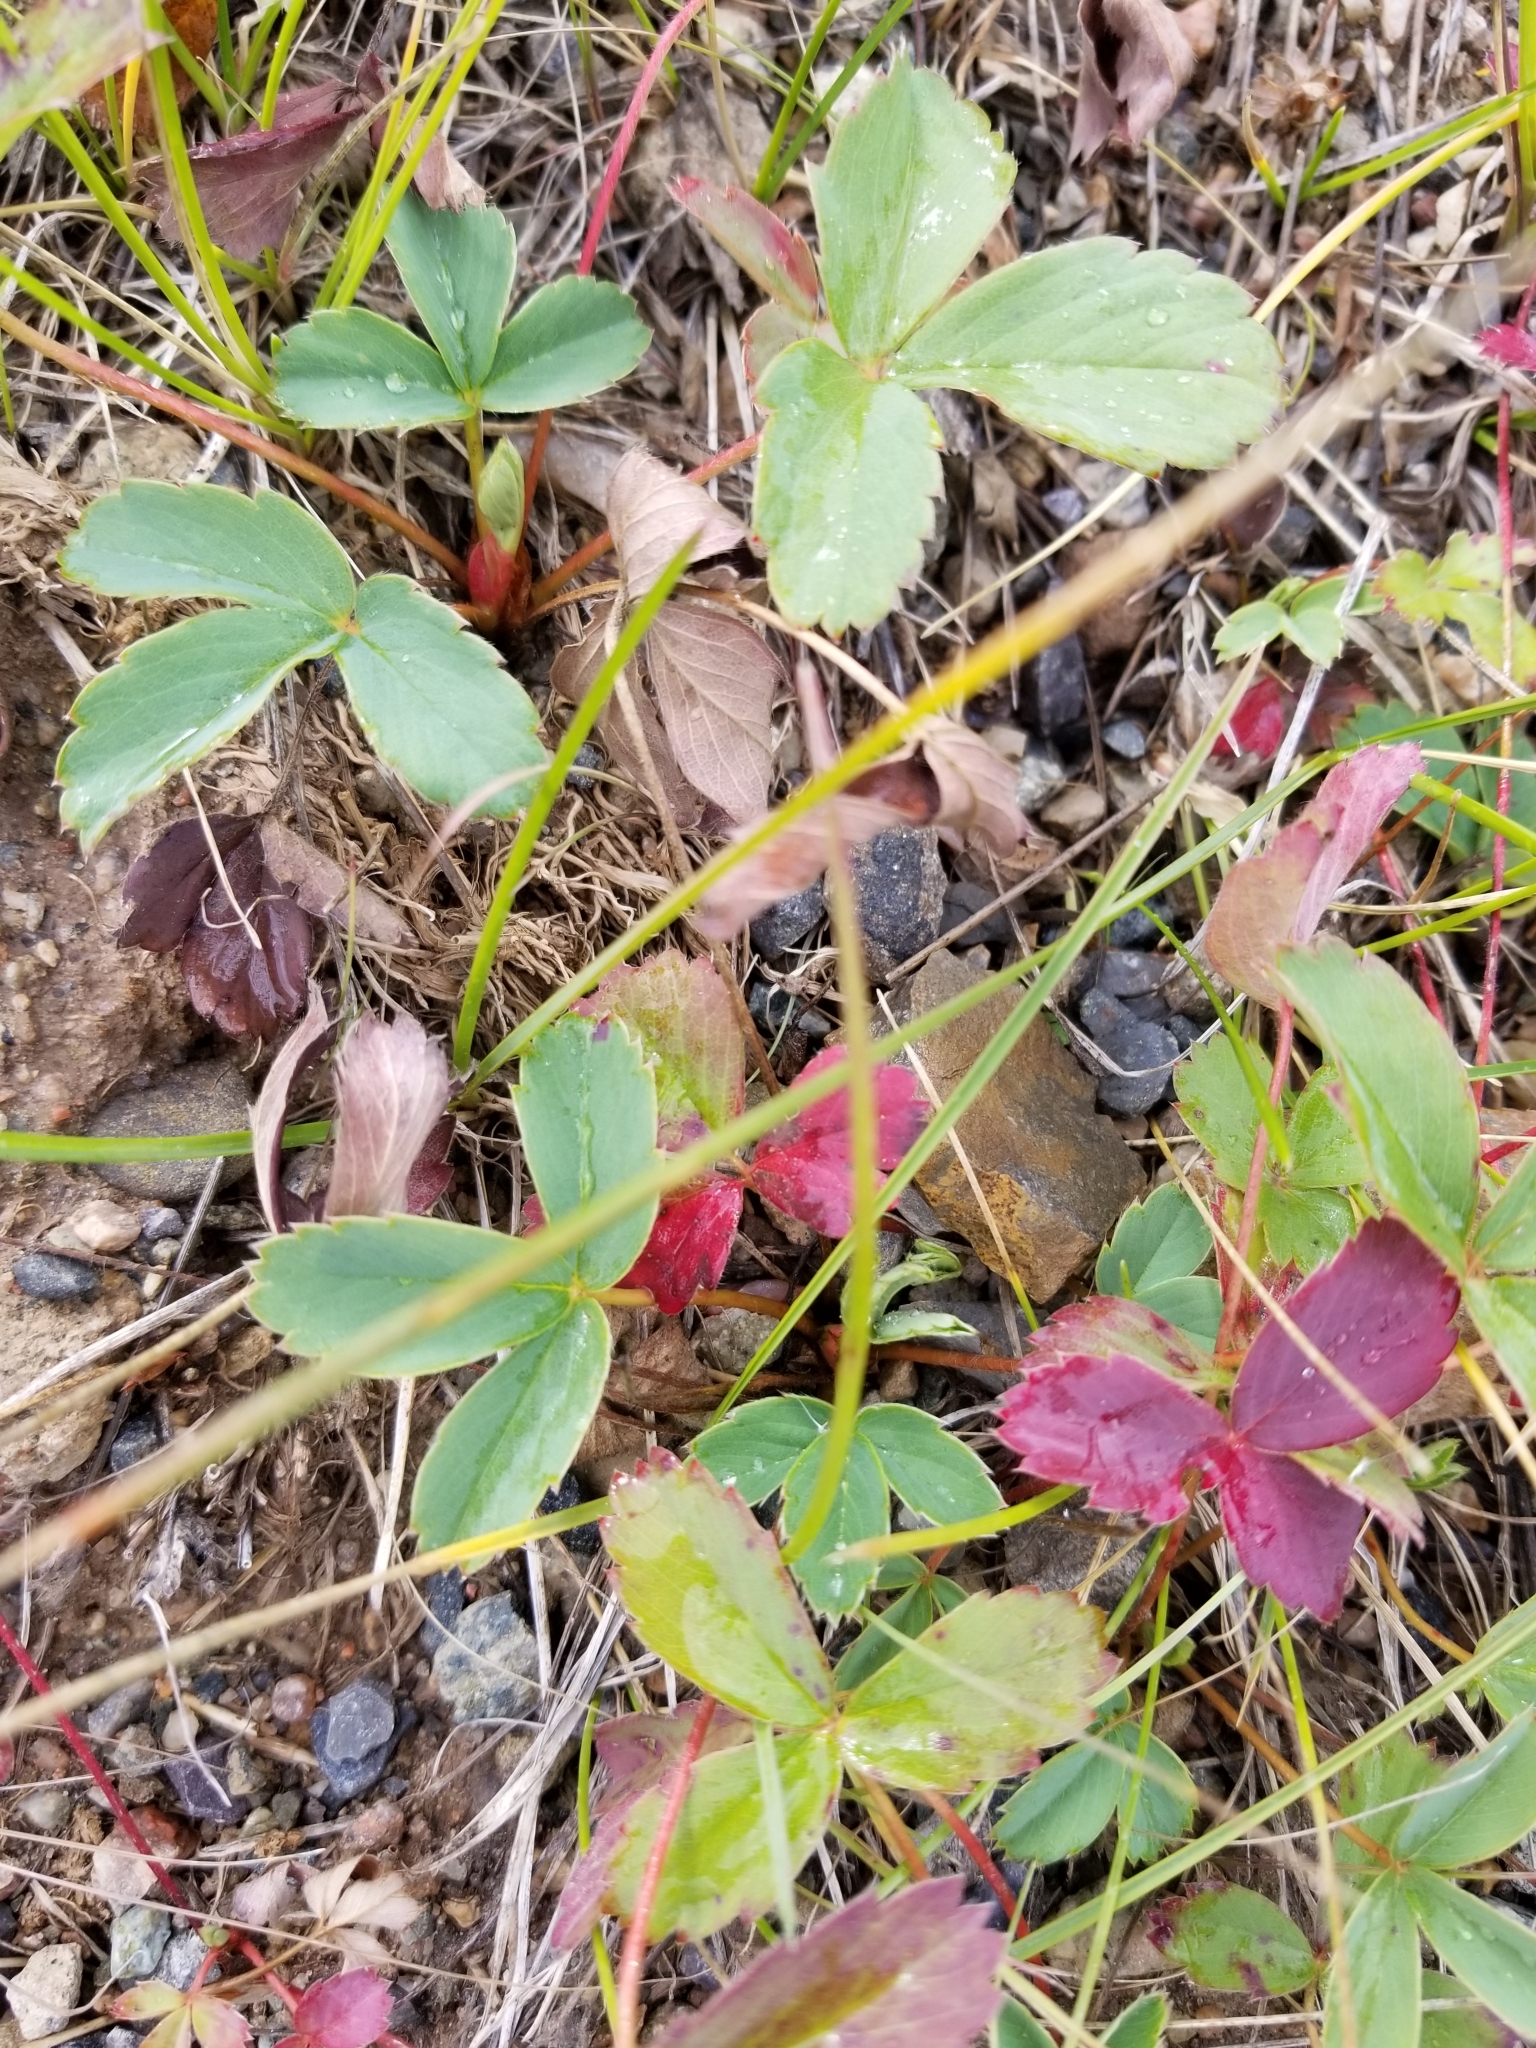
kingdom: Plantae
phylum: Tracheophyta
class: Magnoliopsida
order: Rosales
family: Rosaceae
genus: Fragaria
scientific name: Fragaria vesca
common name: Wild strawberry
